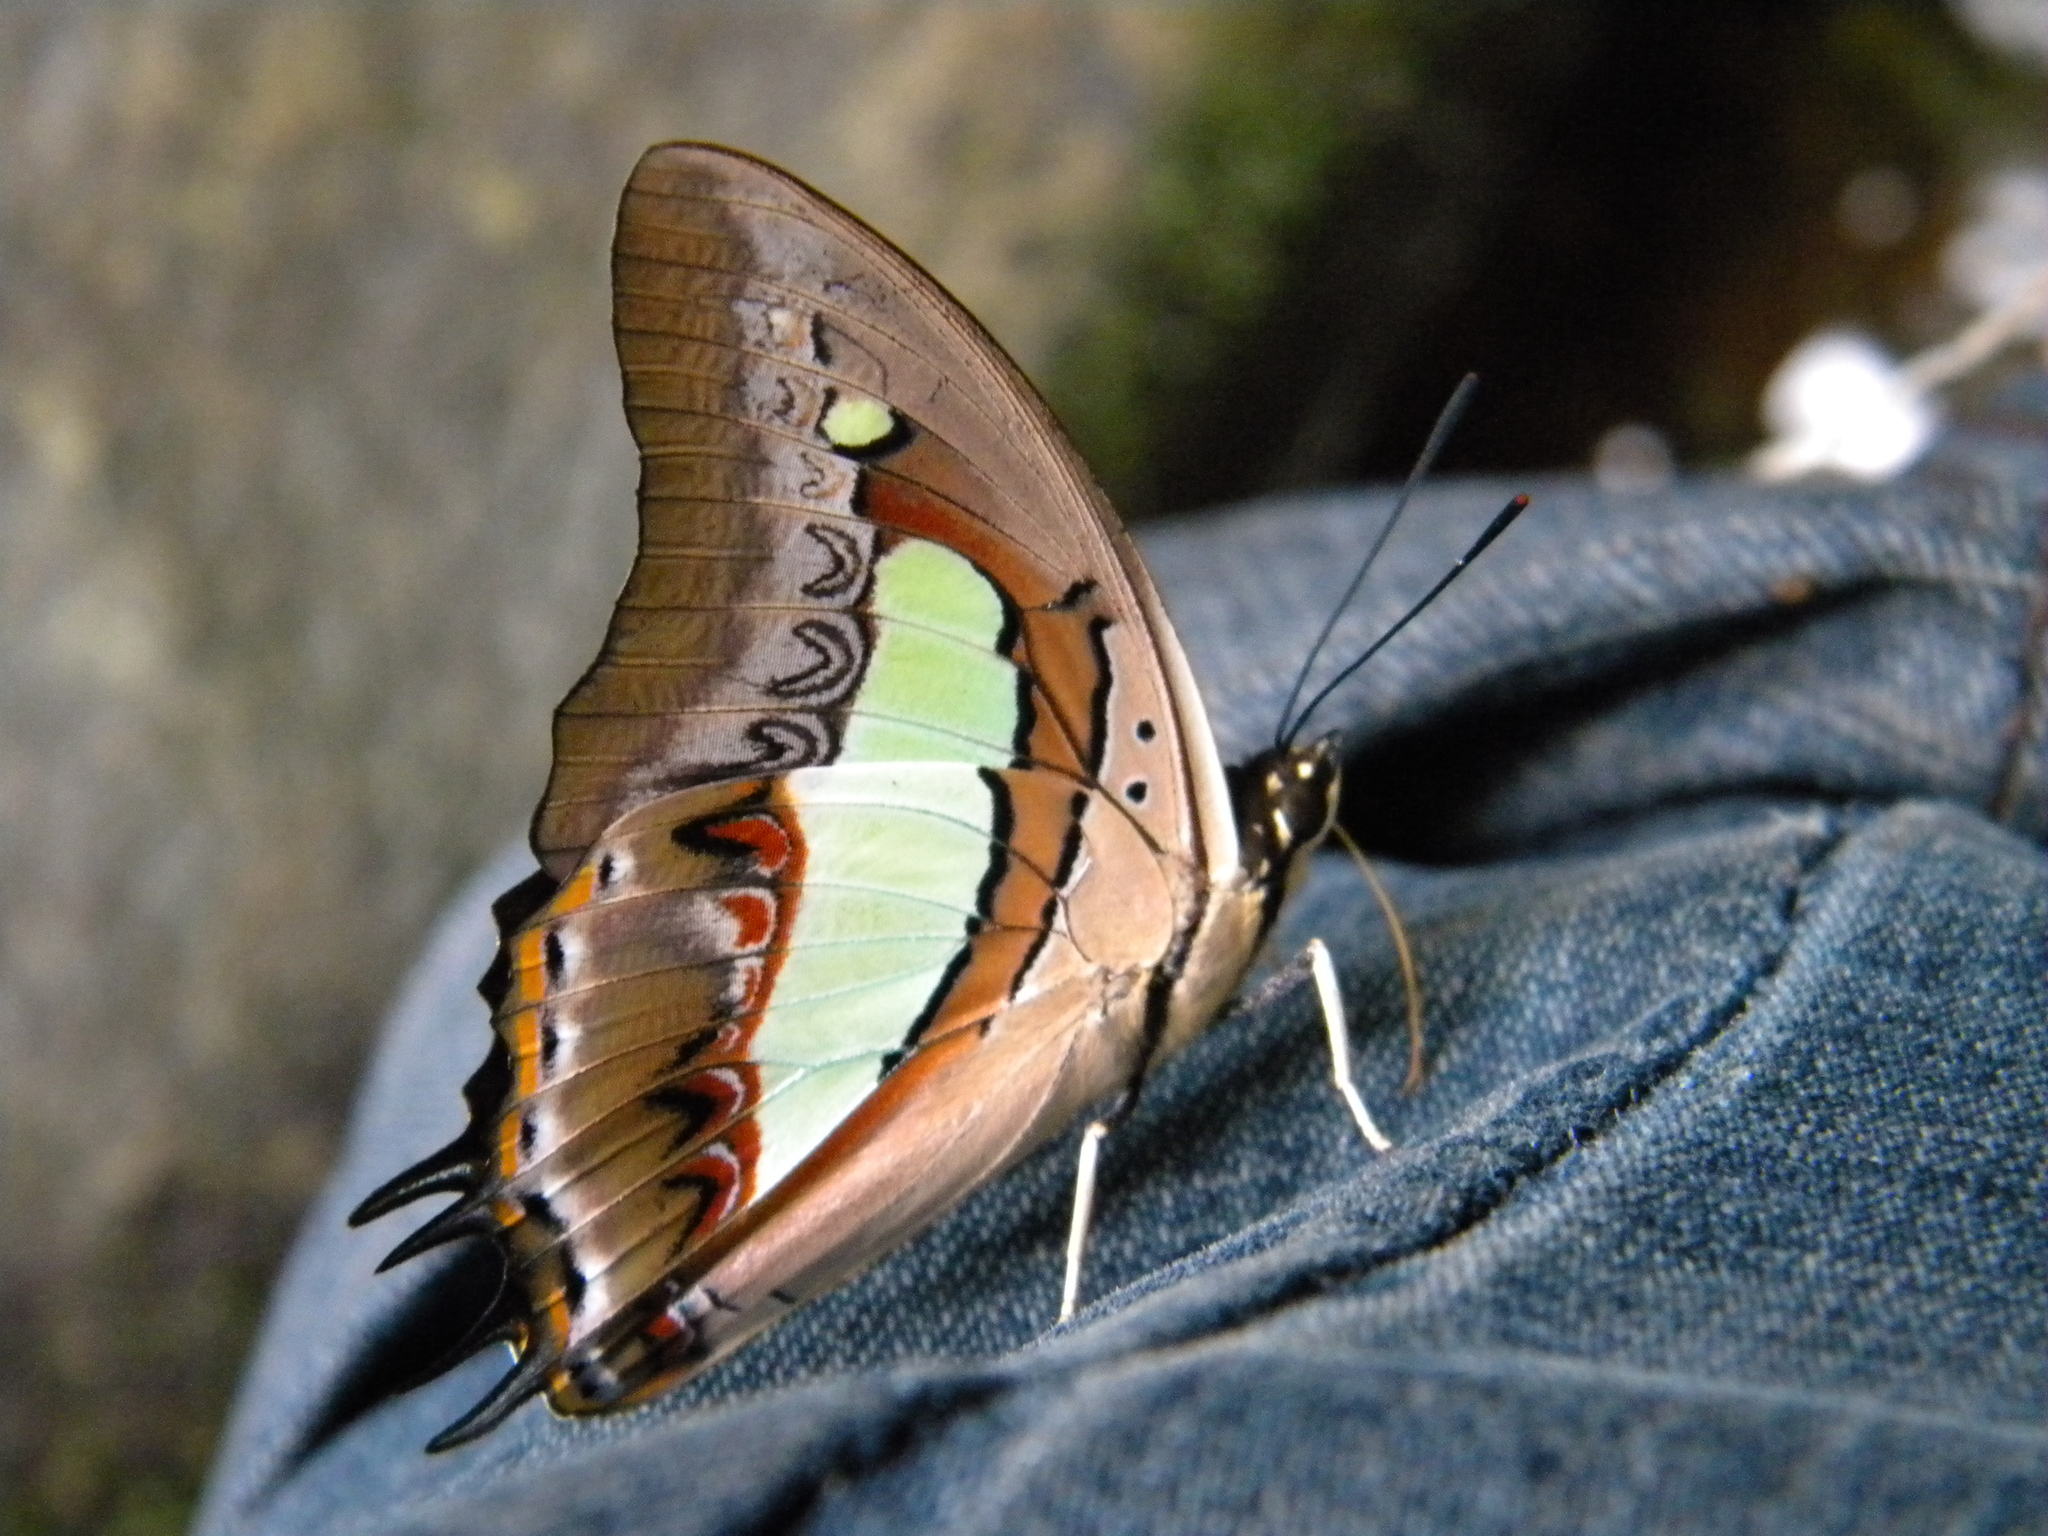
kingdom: Animalia
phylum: Arthropoda
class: Insecta
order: Lepidoptera
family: Nymphalidae
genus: Polyura
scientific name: Polyura
